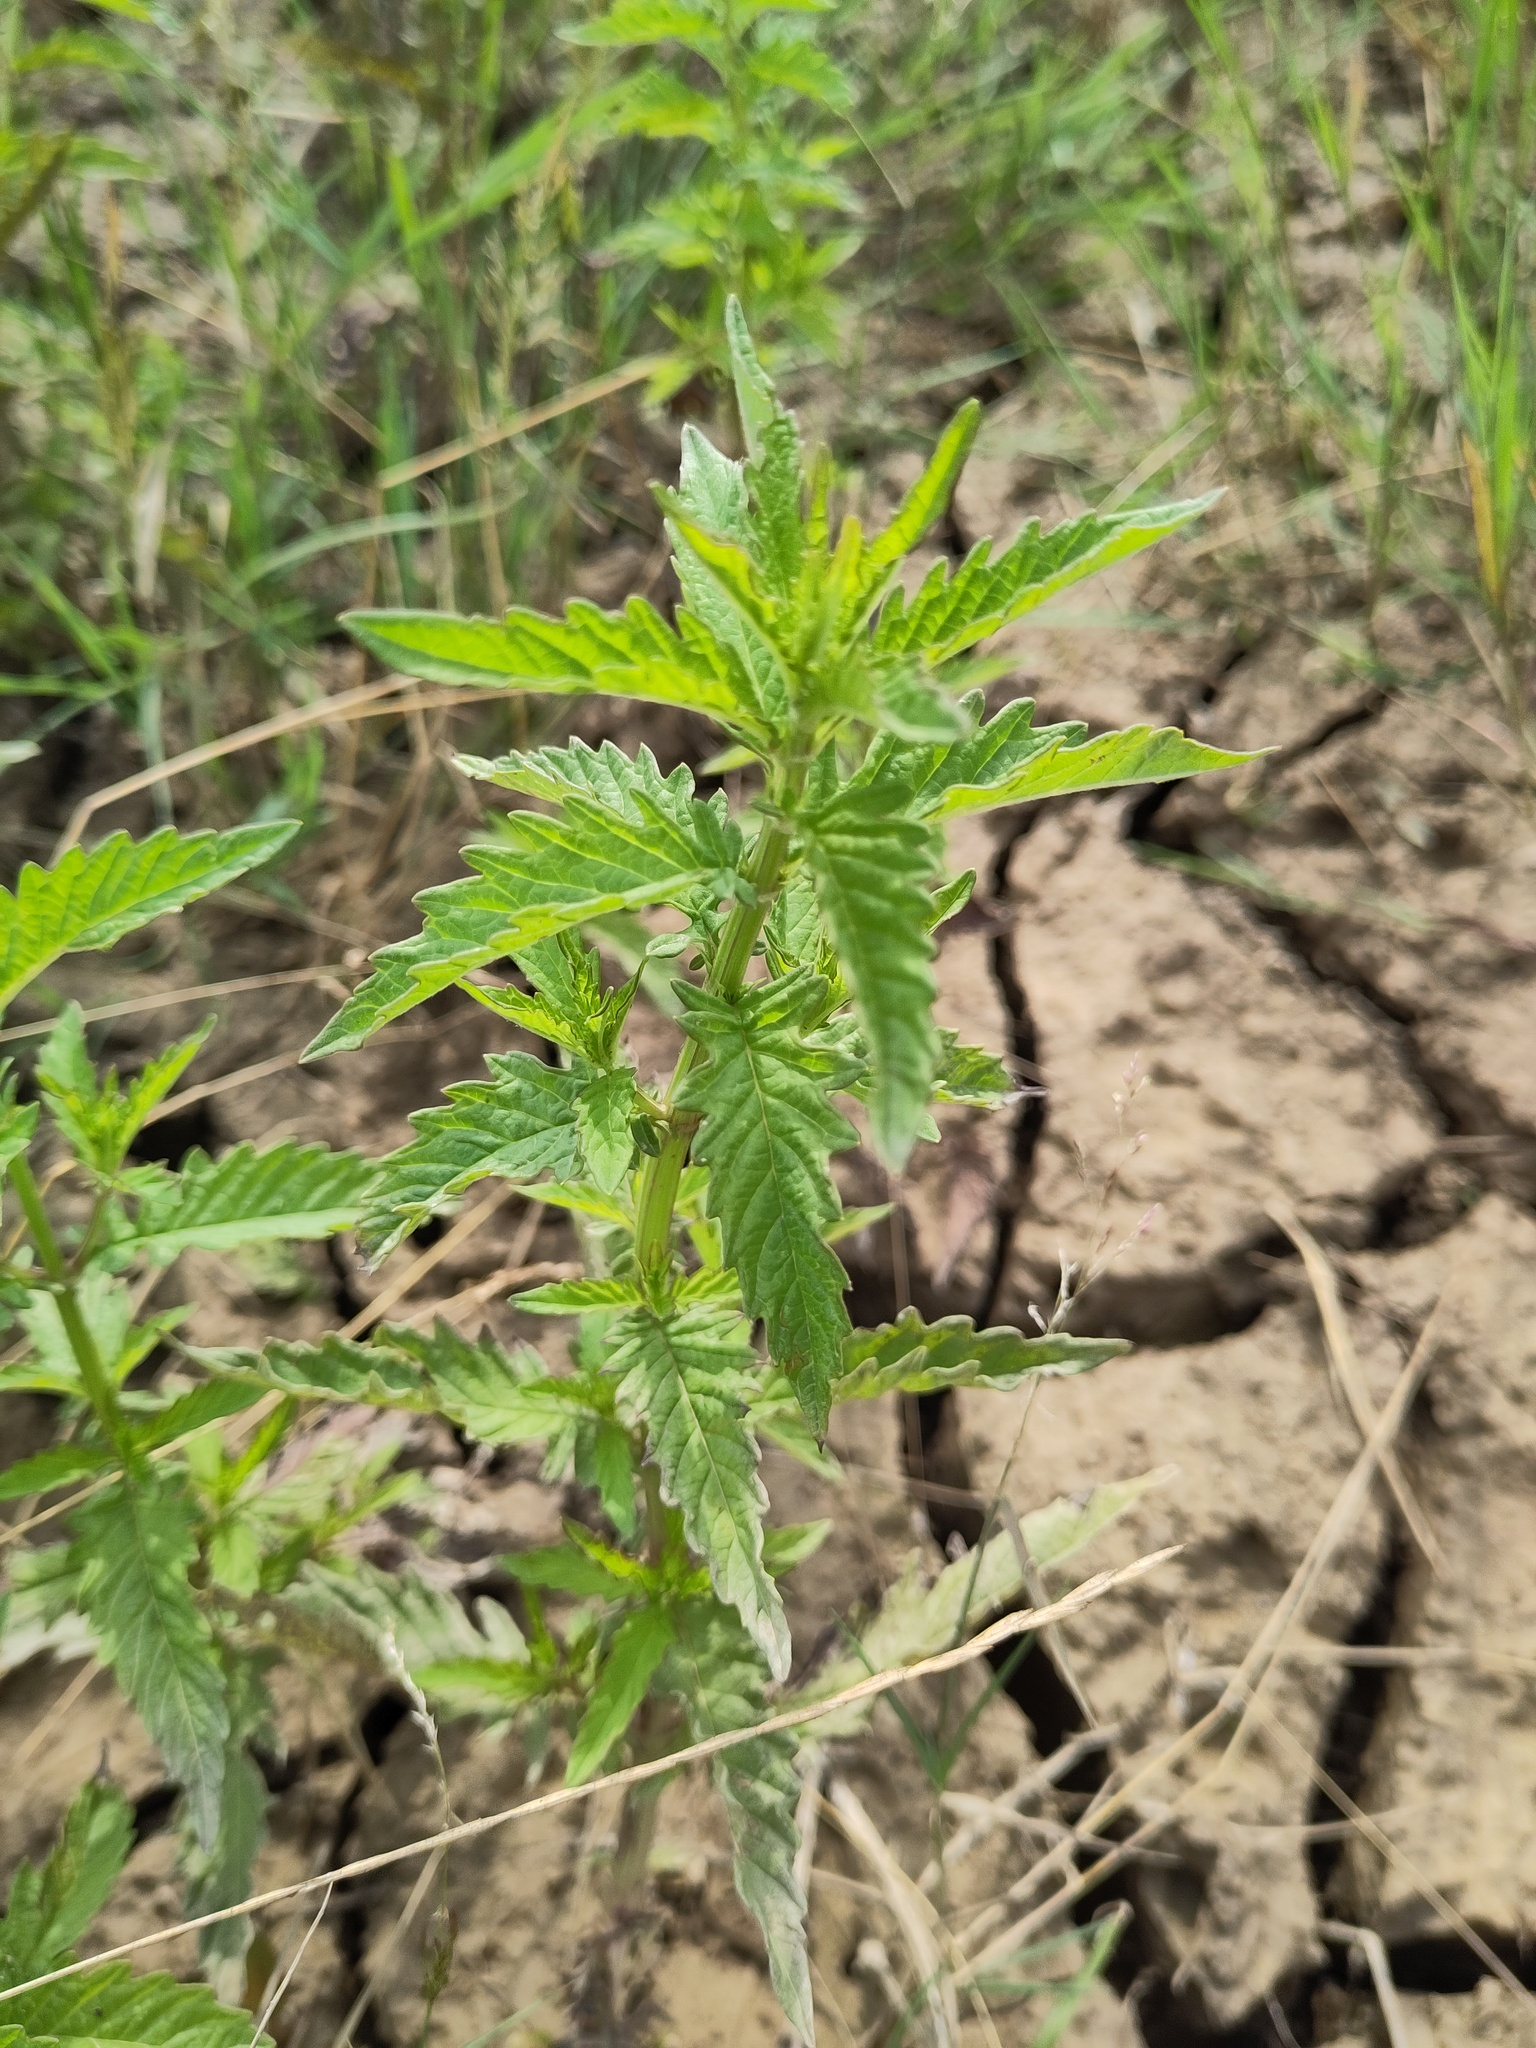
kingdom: Plantae
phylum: Tracheophyta
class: Magnoliopsida
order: Lamiales
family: Lamiaceae
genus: Lycopus
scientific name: Lycopus europaeus
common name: European bugleweed
